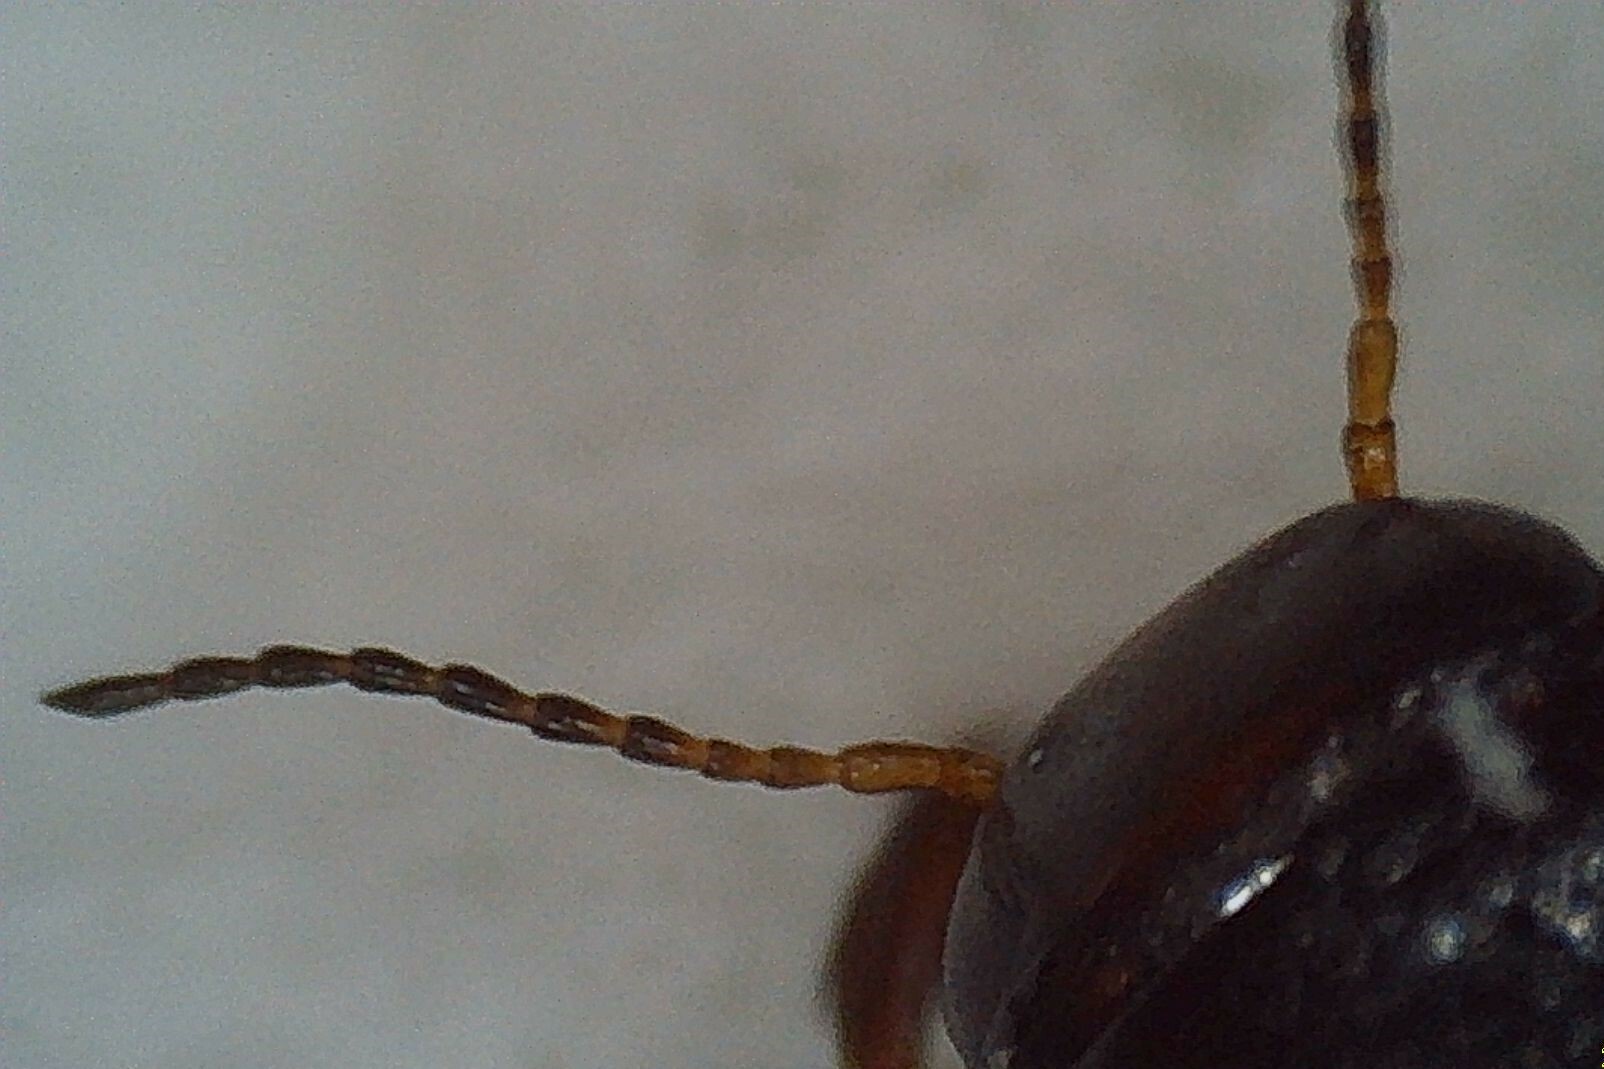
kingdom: Animalia
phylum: Arthropoda
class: Insecta
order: Coleoptera
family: Dytiscidae
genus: Hydroporus
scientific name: Hydroporus
